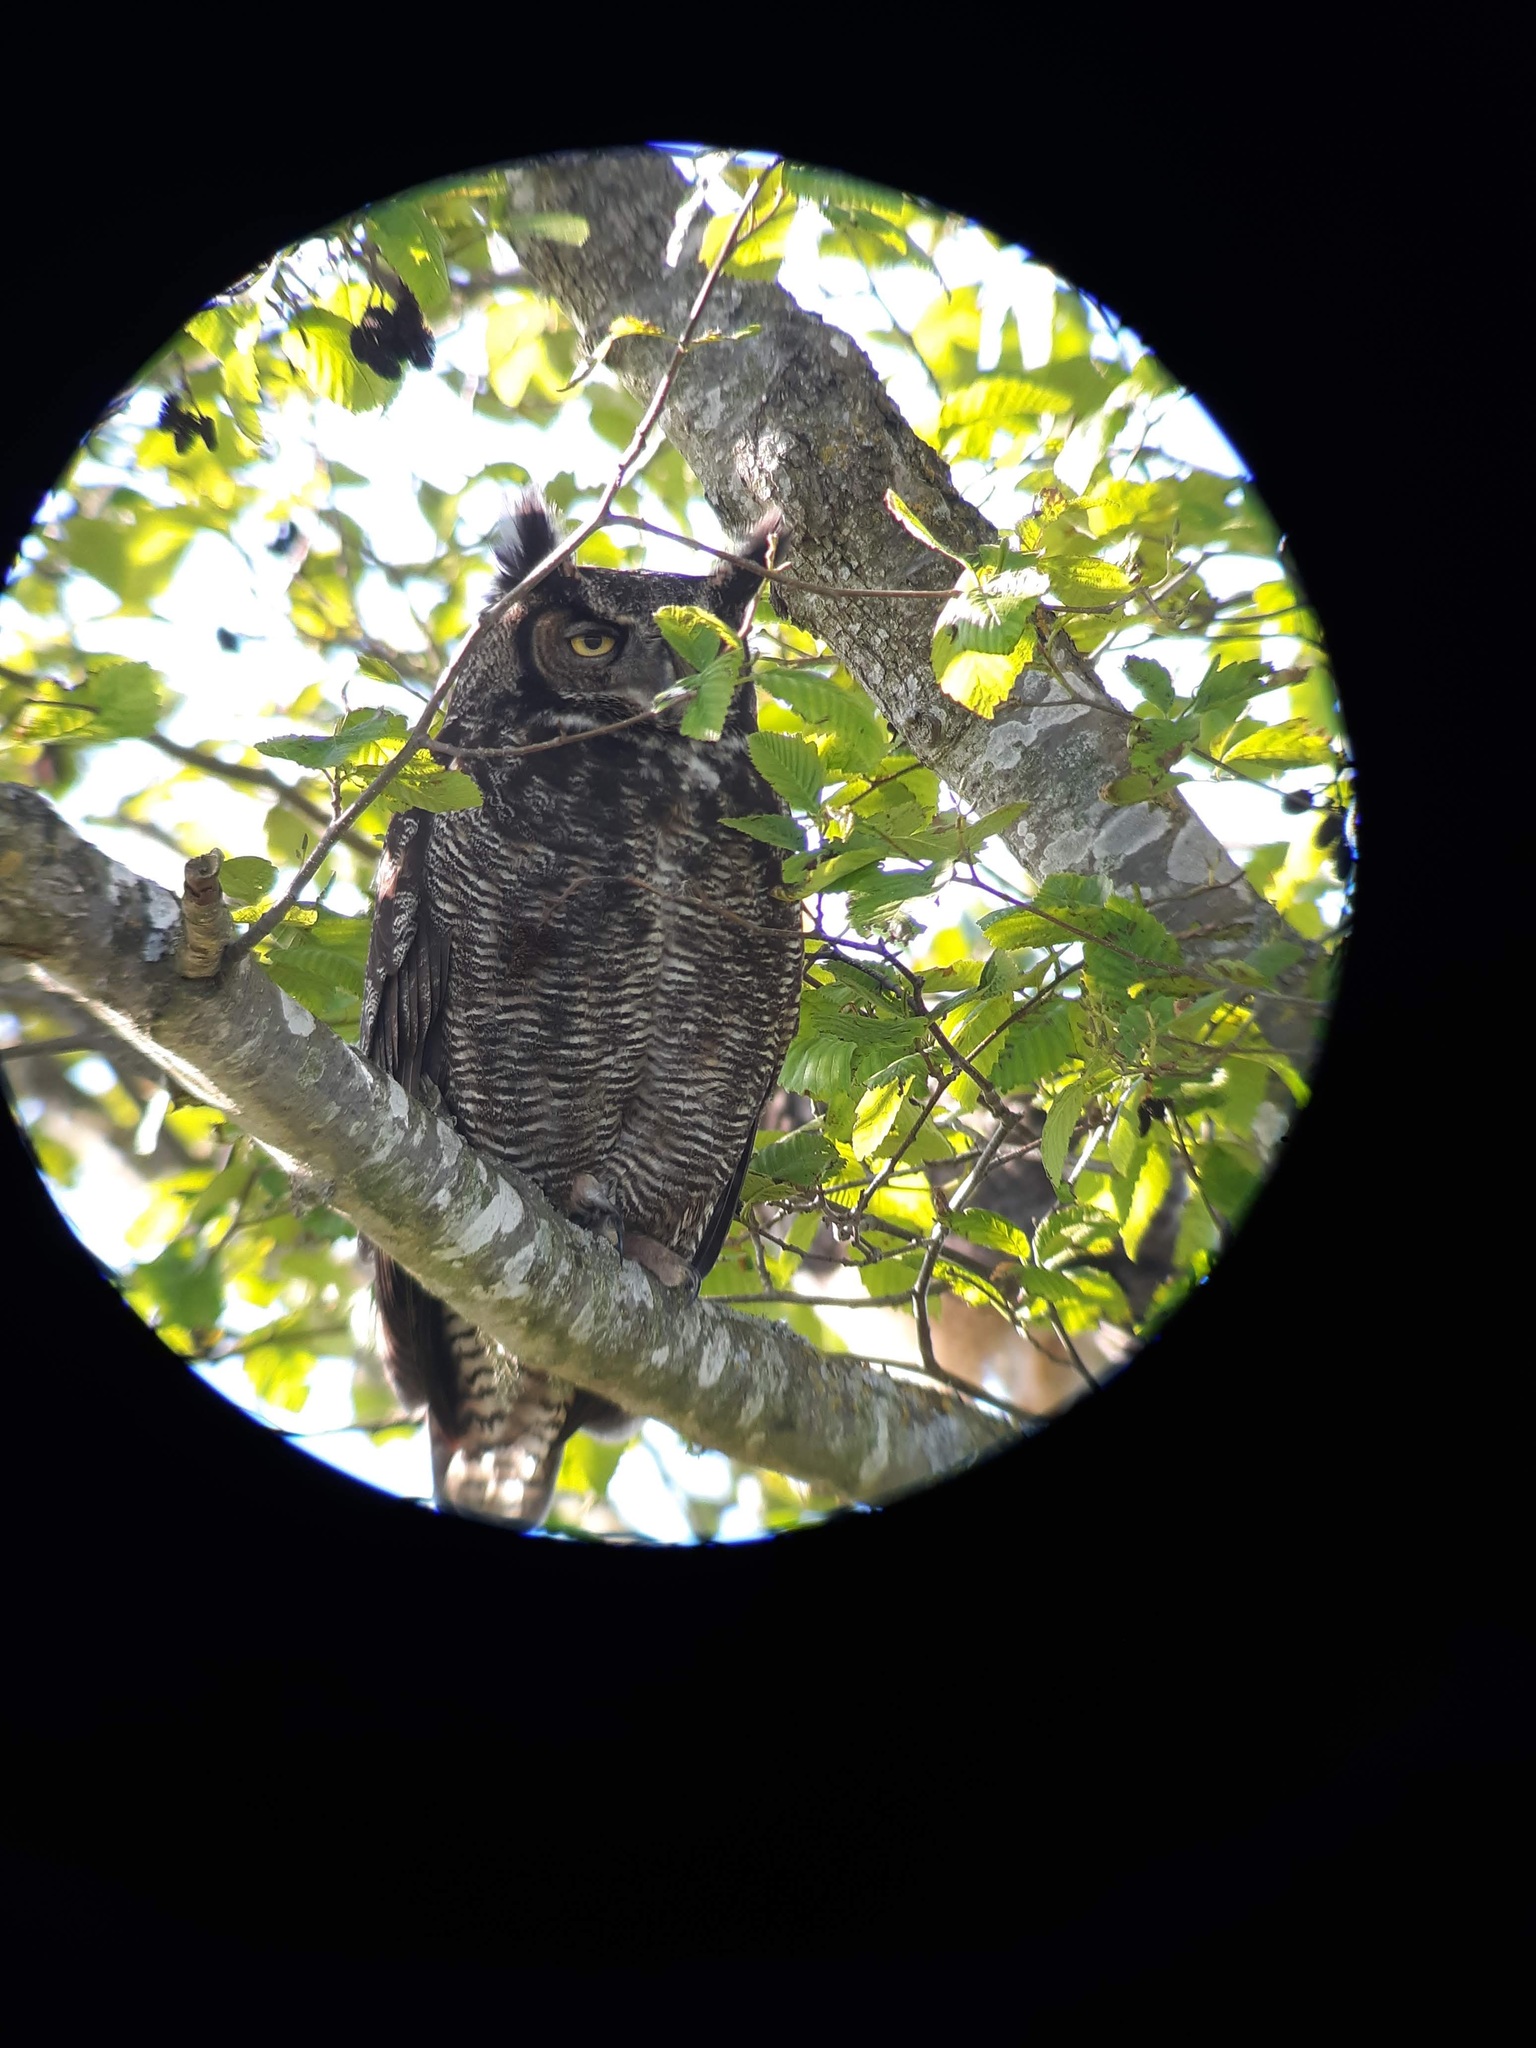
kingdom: Animalia
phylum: Chordata
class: Aves
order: Strigiformes
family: Strigidae
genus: Bubo
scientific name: Bubo virginianus
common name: Great horned owl
